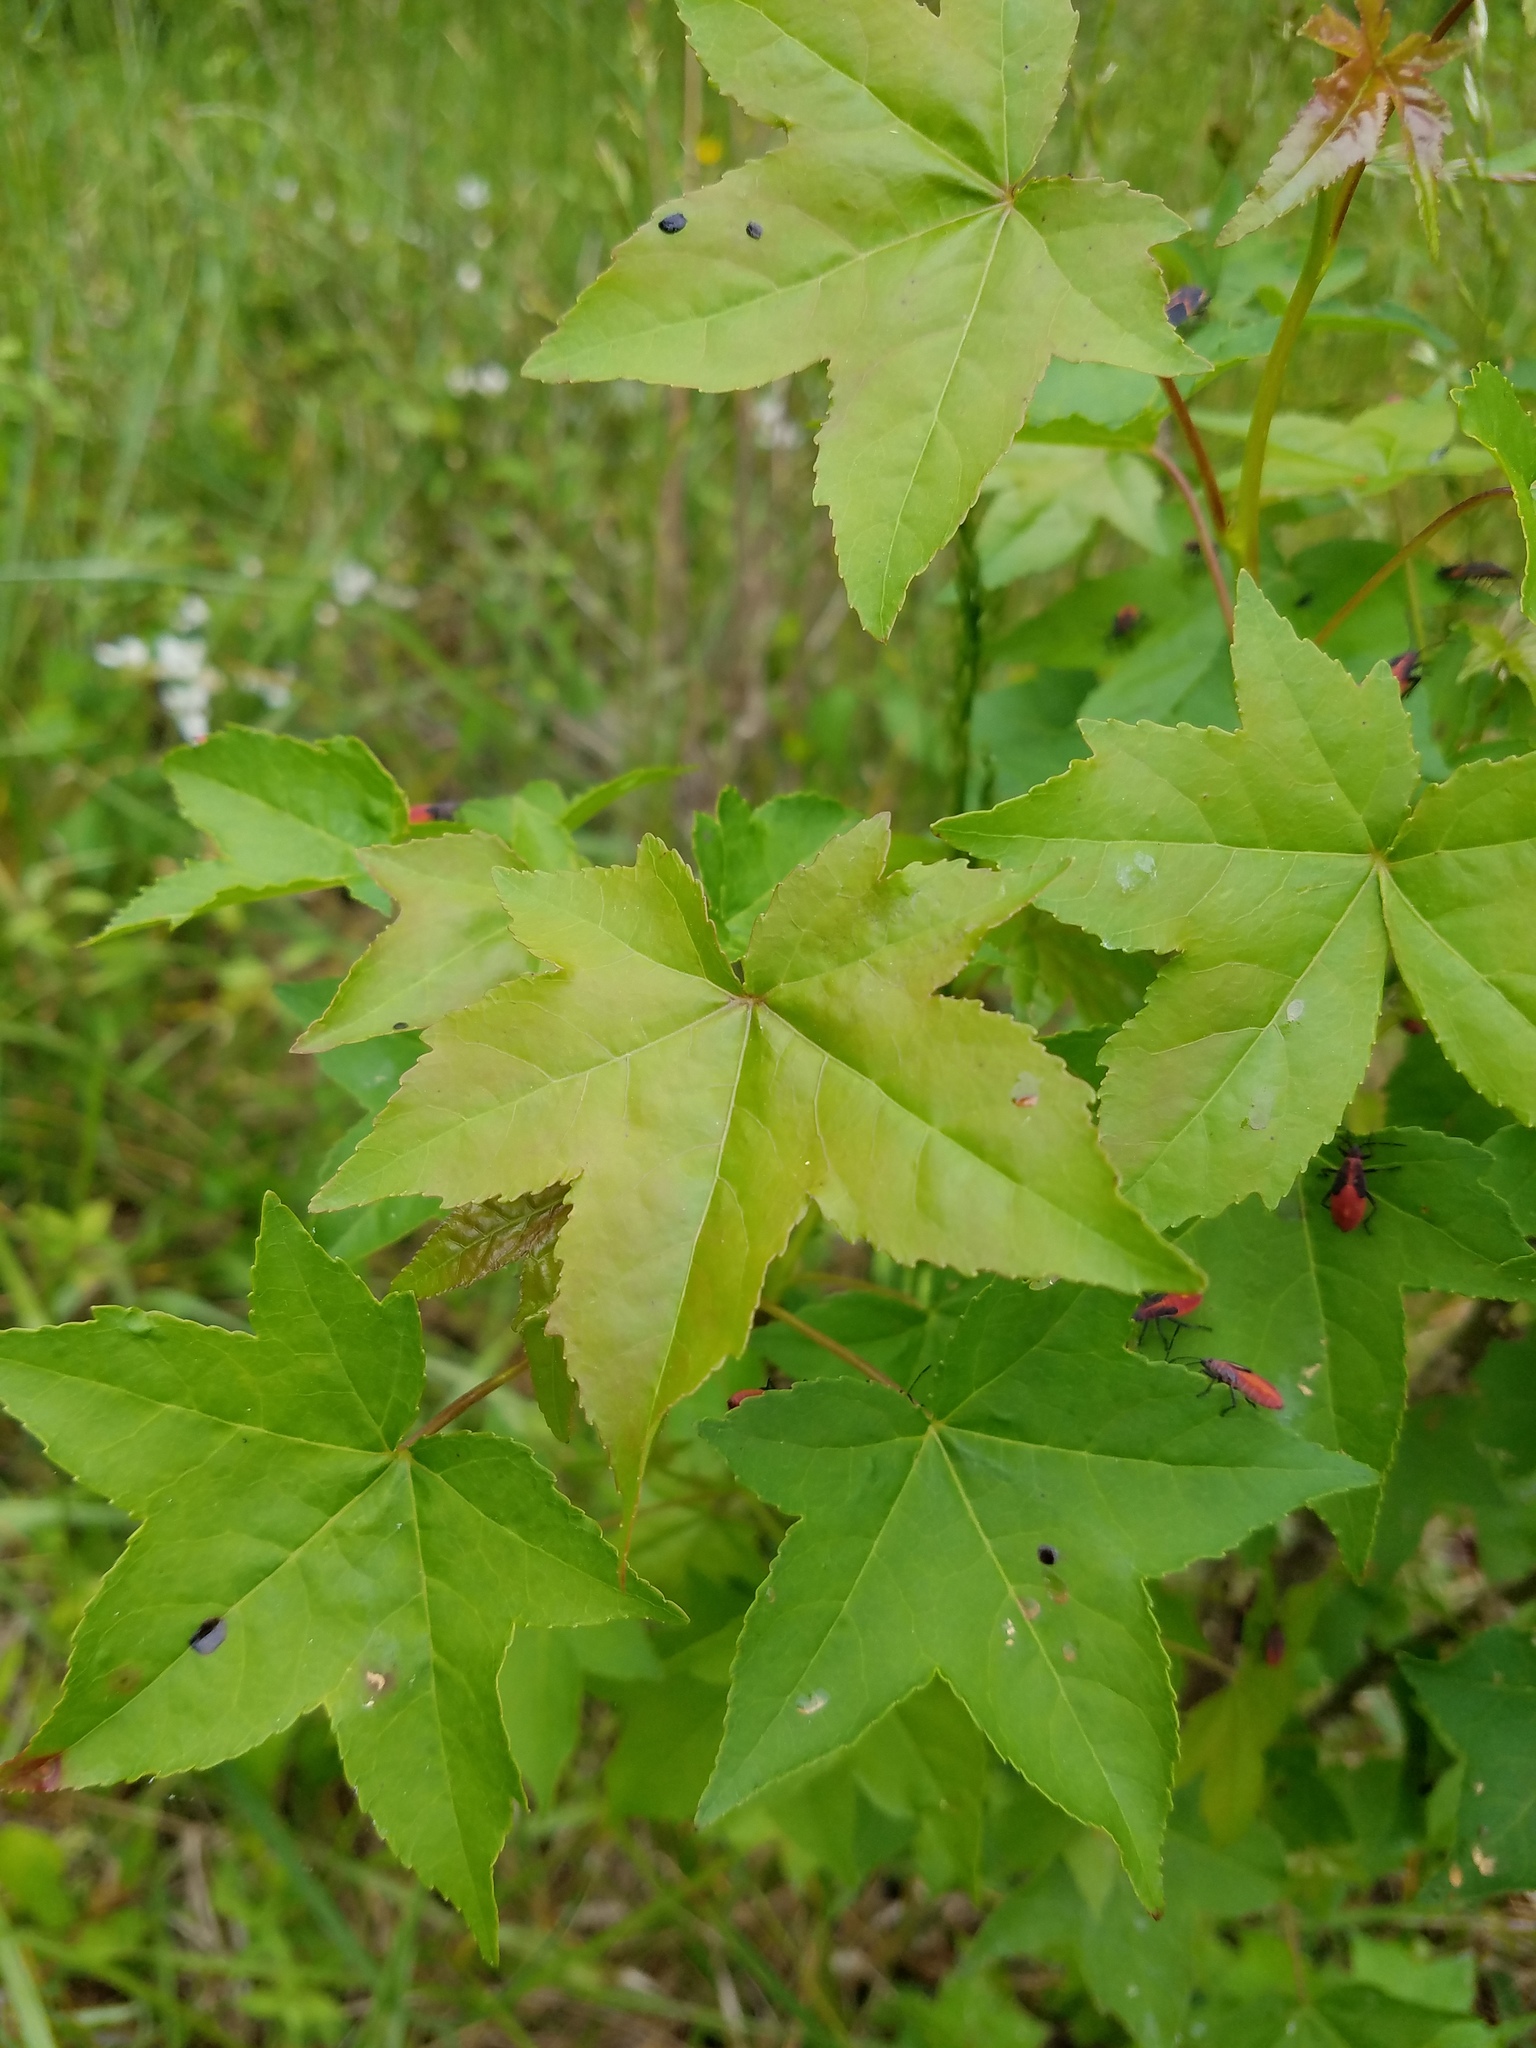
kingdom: Plantae
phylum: Tracheophyta
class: Magnoliopsida
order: Saxifragales
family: Altingiaceae
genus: Liquidambar
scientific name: Liquidambar styraciflua
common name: Sweet gum
